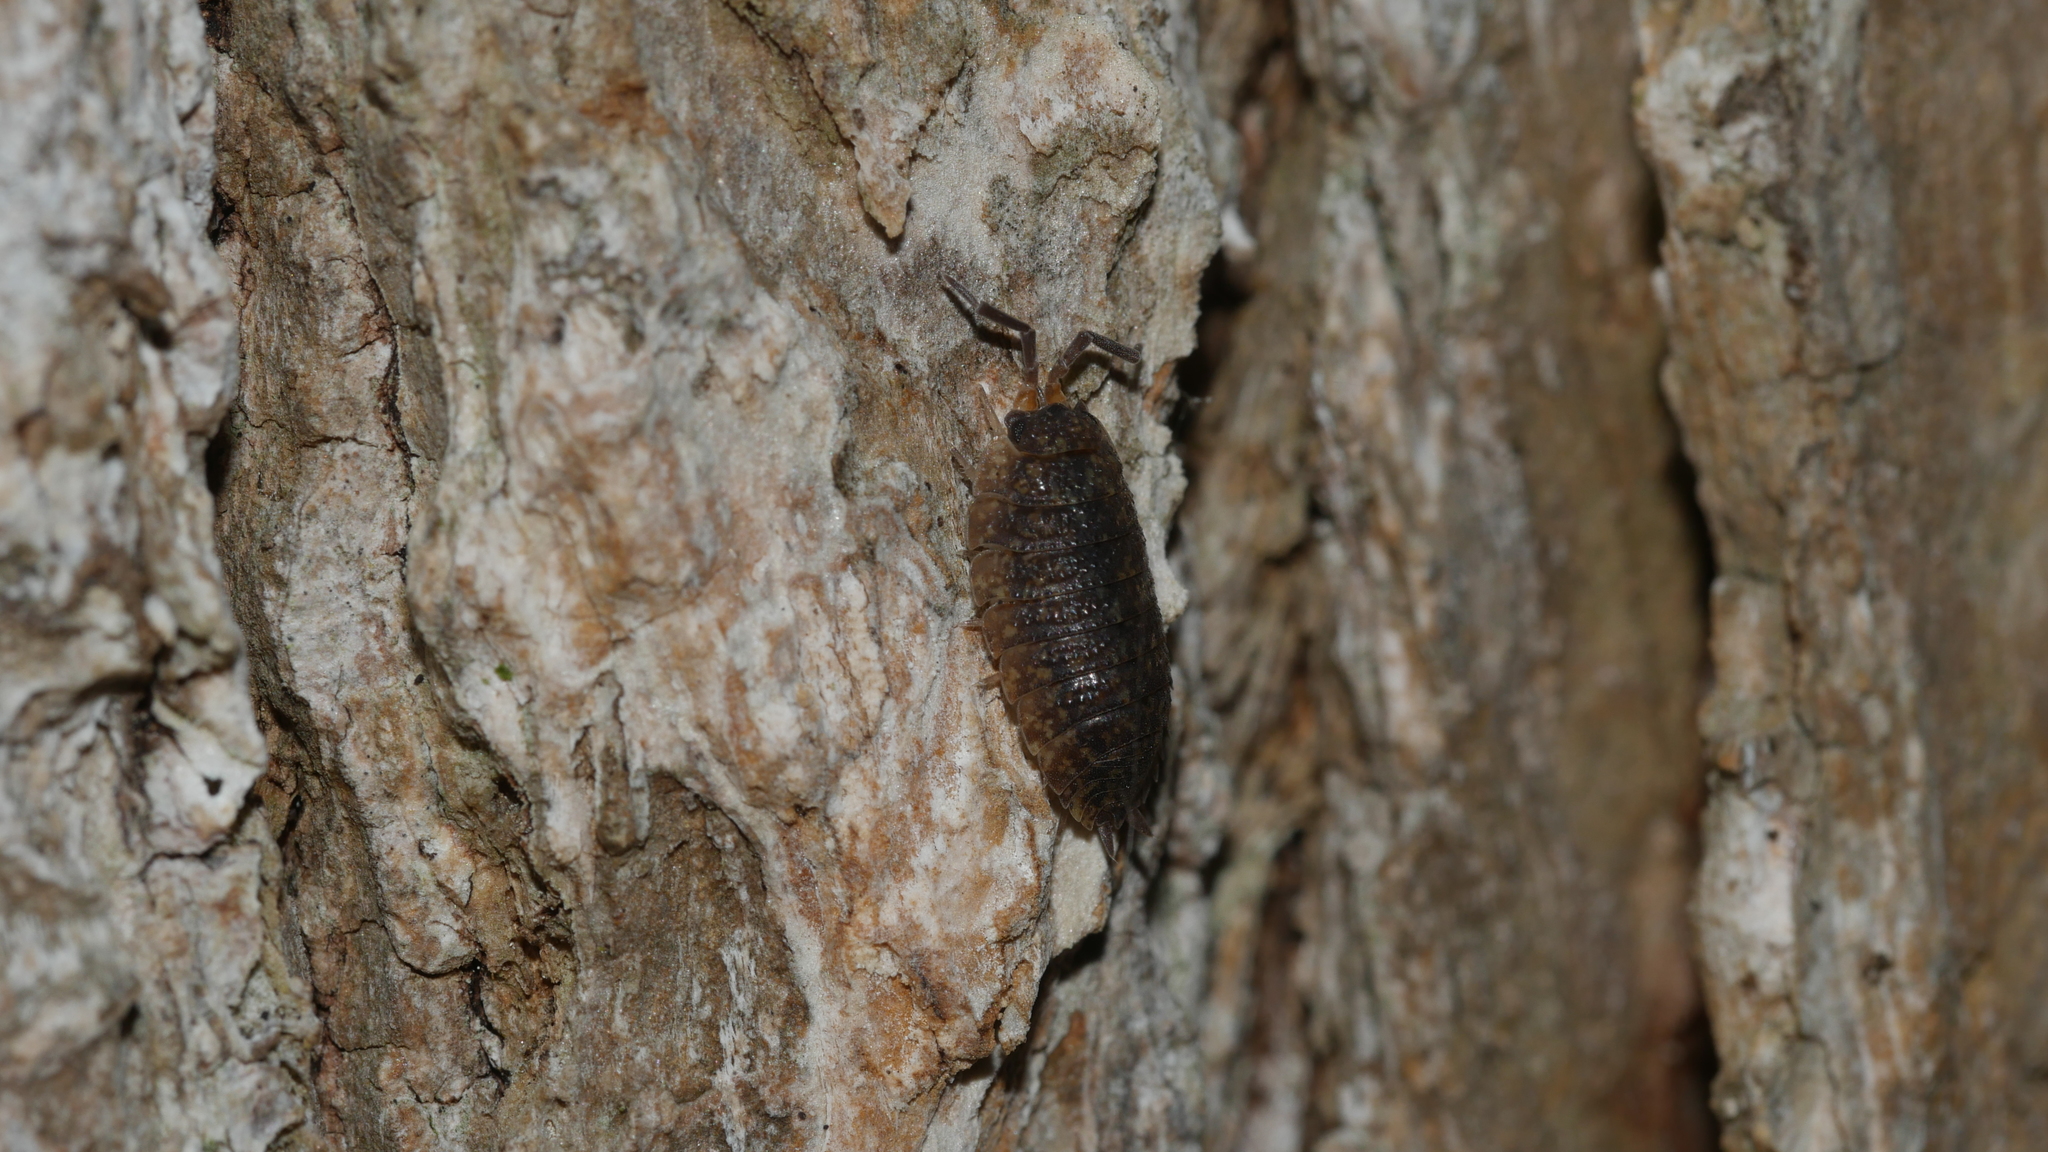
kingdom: Animalia
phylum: Arthropoda
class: Malacostraca
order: Isopoda
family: Porcellionidae
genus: Porcellio
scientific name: Porcellio scaber
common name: Common rough woodlouse
